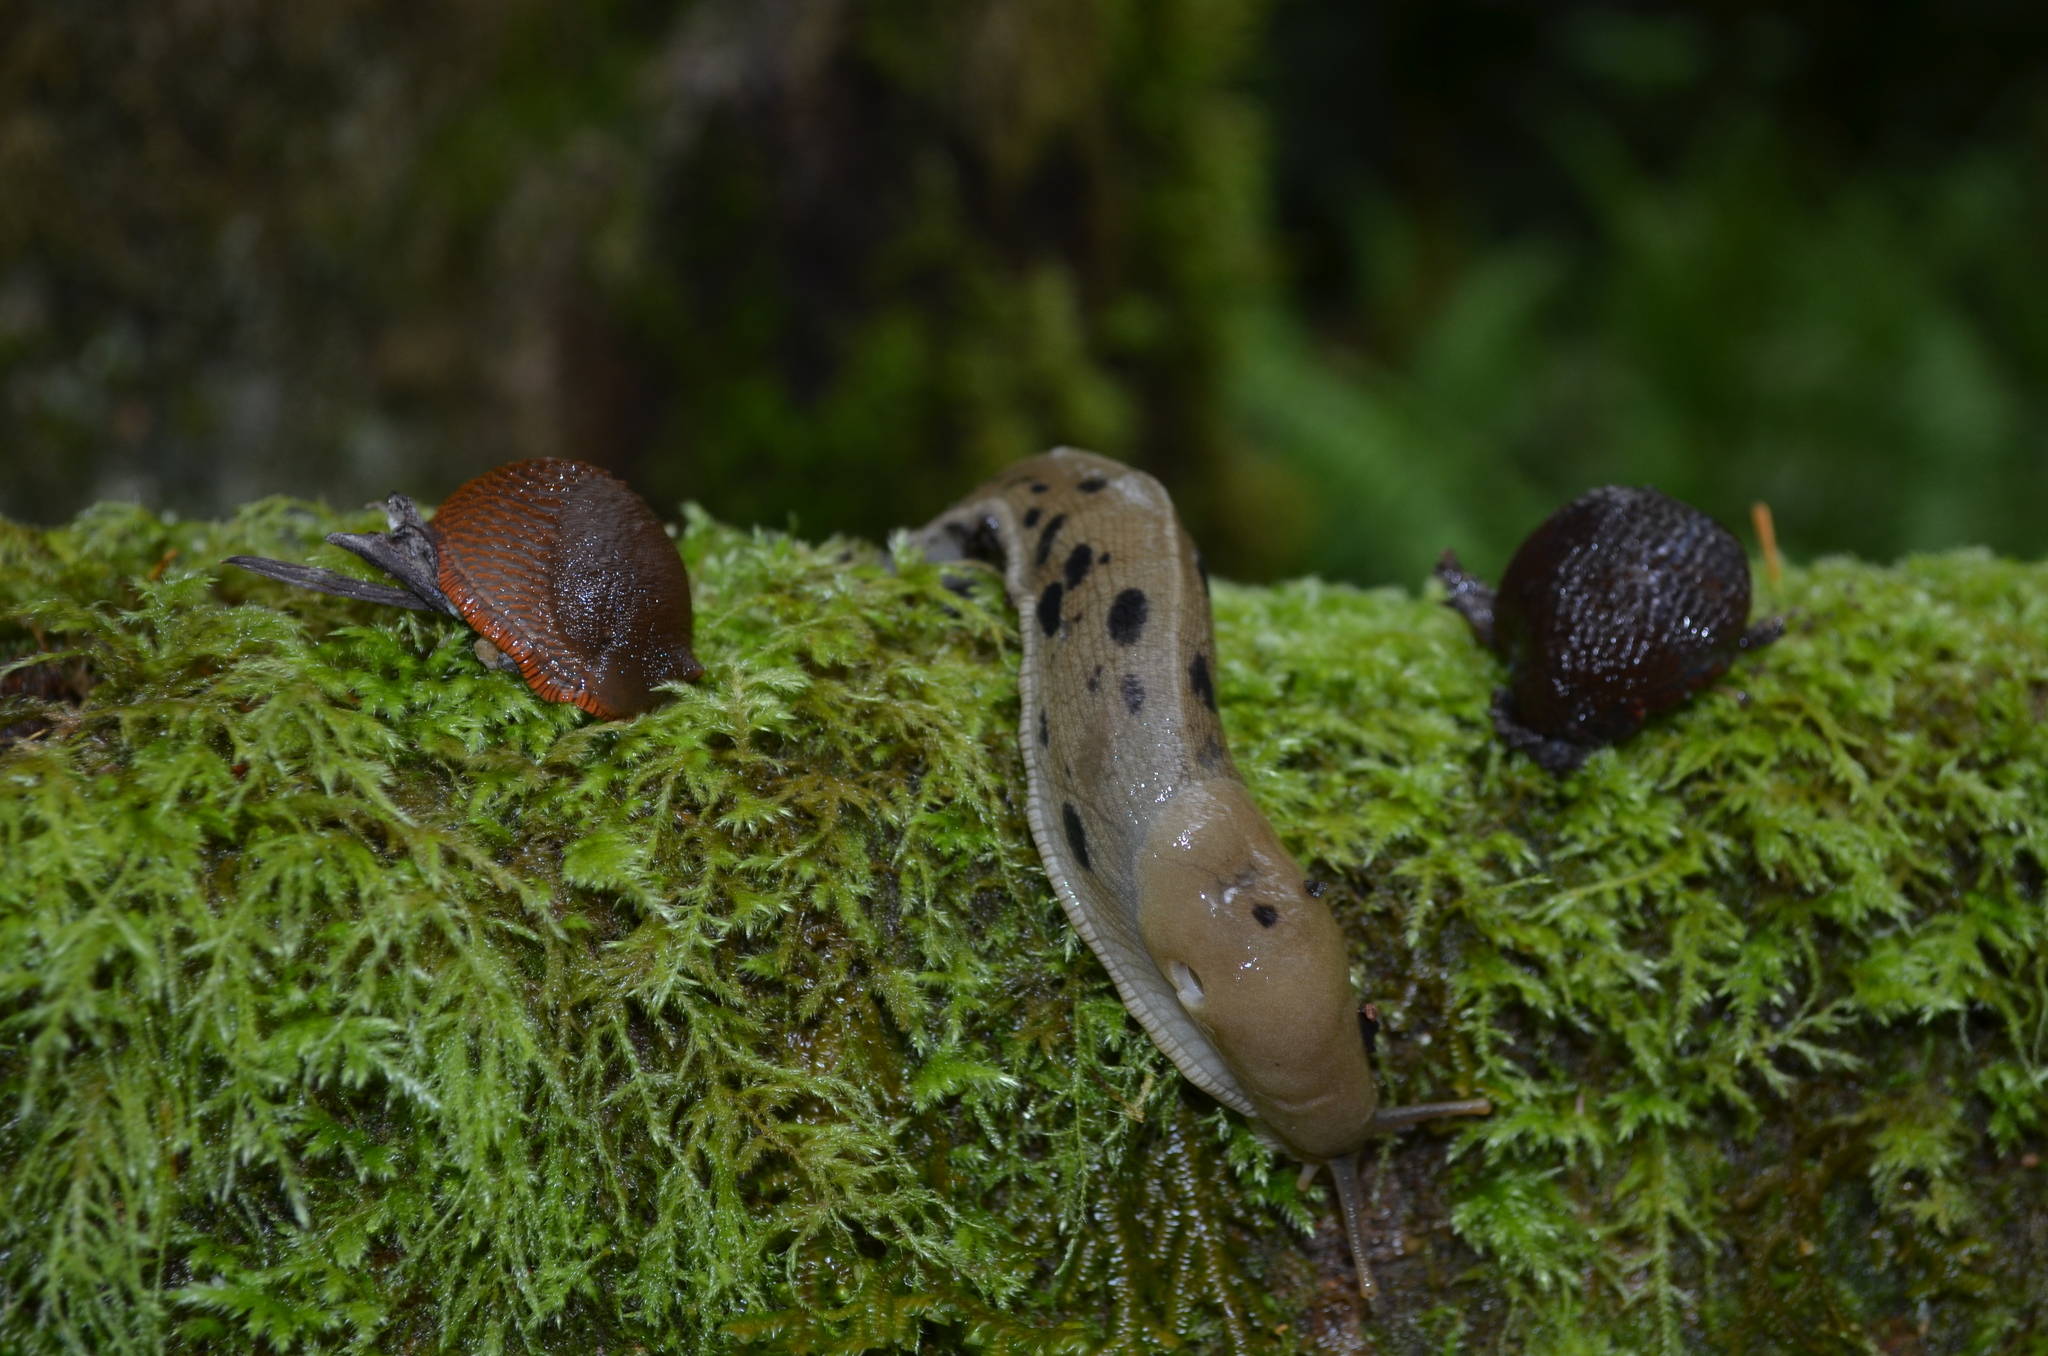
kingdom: Animalia
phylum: Mollusca
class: Gastropoda
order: Stylommatophora
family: Ariolimacidae
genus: Ariolimax
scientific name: Ariolimax columbianus
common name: Pacific banana slug
